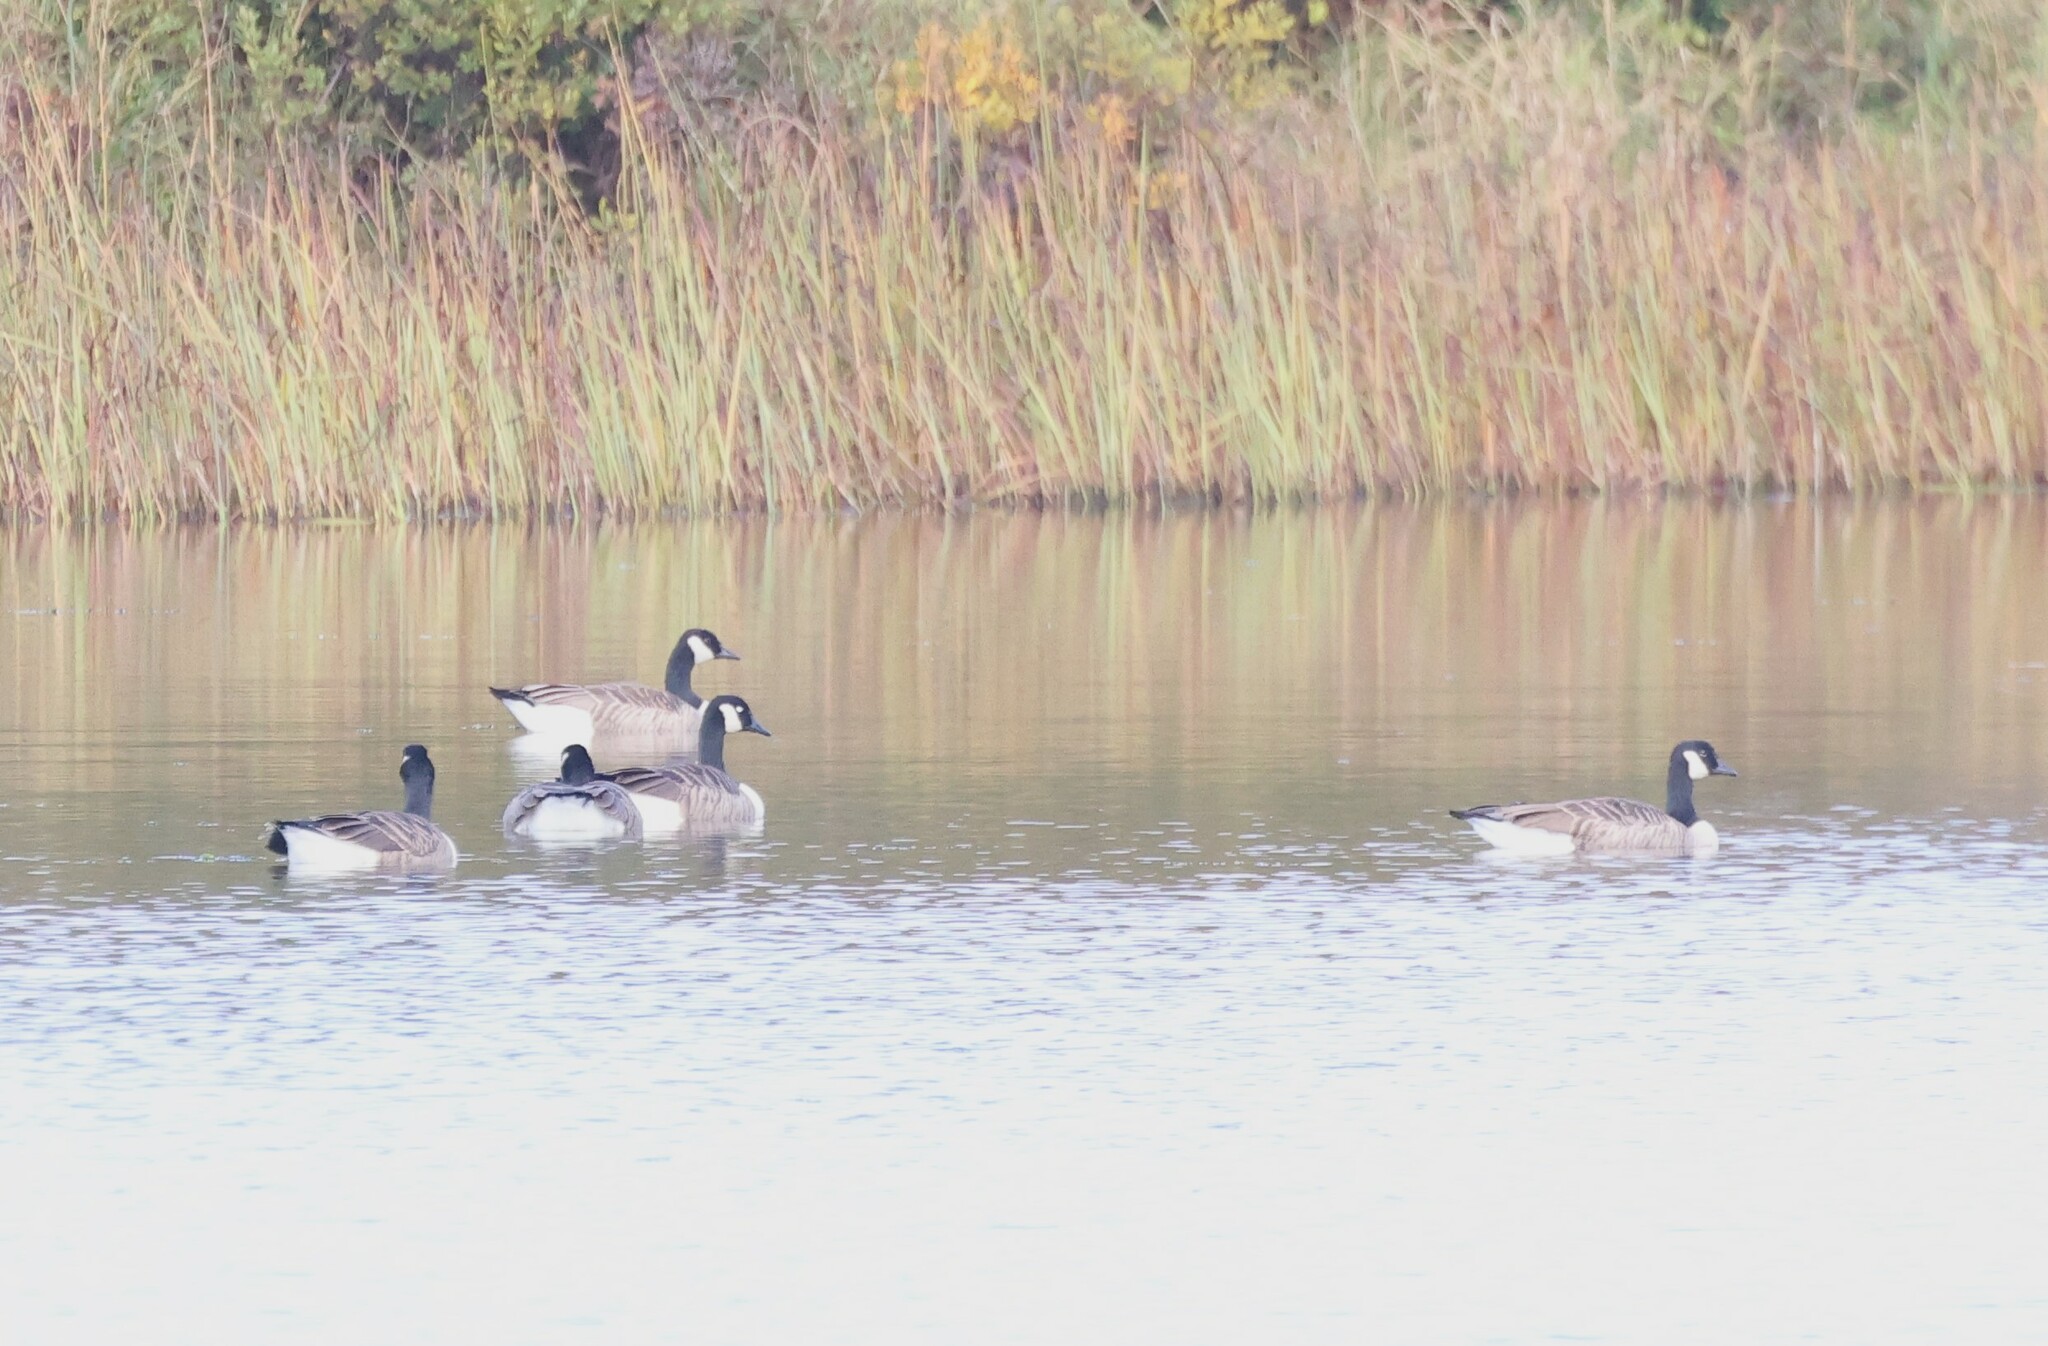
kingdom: Animalia
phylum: Chordata
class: Aves
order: Anseriformes
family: Anatidae
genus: Branta
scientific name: Branta canadensis
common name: Canada goose
